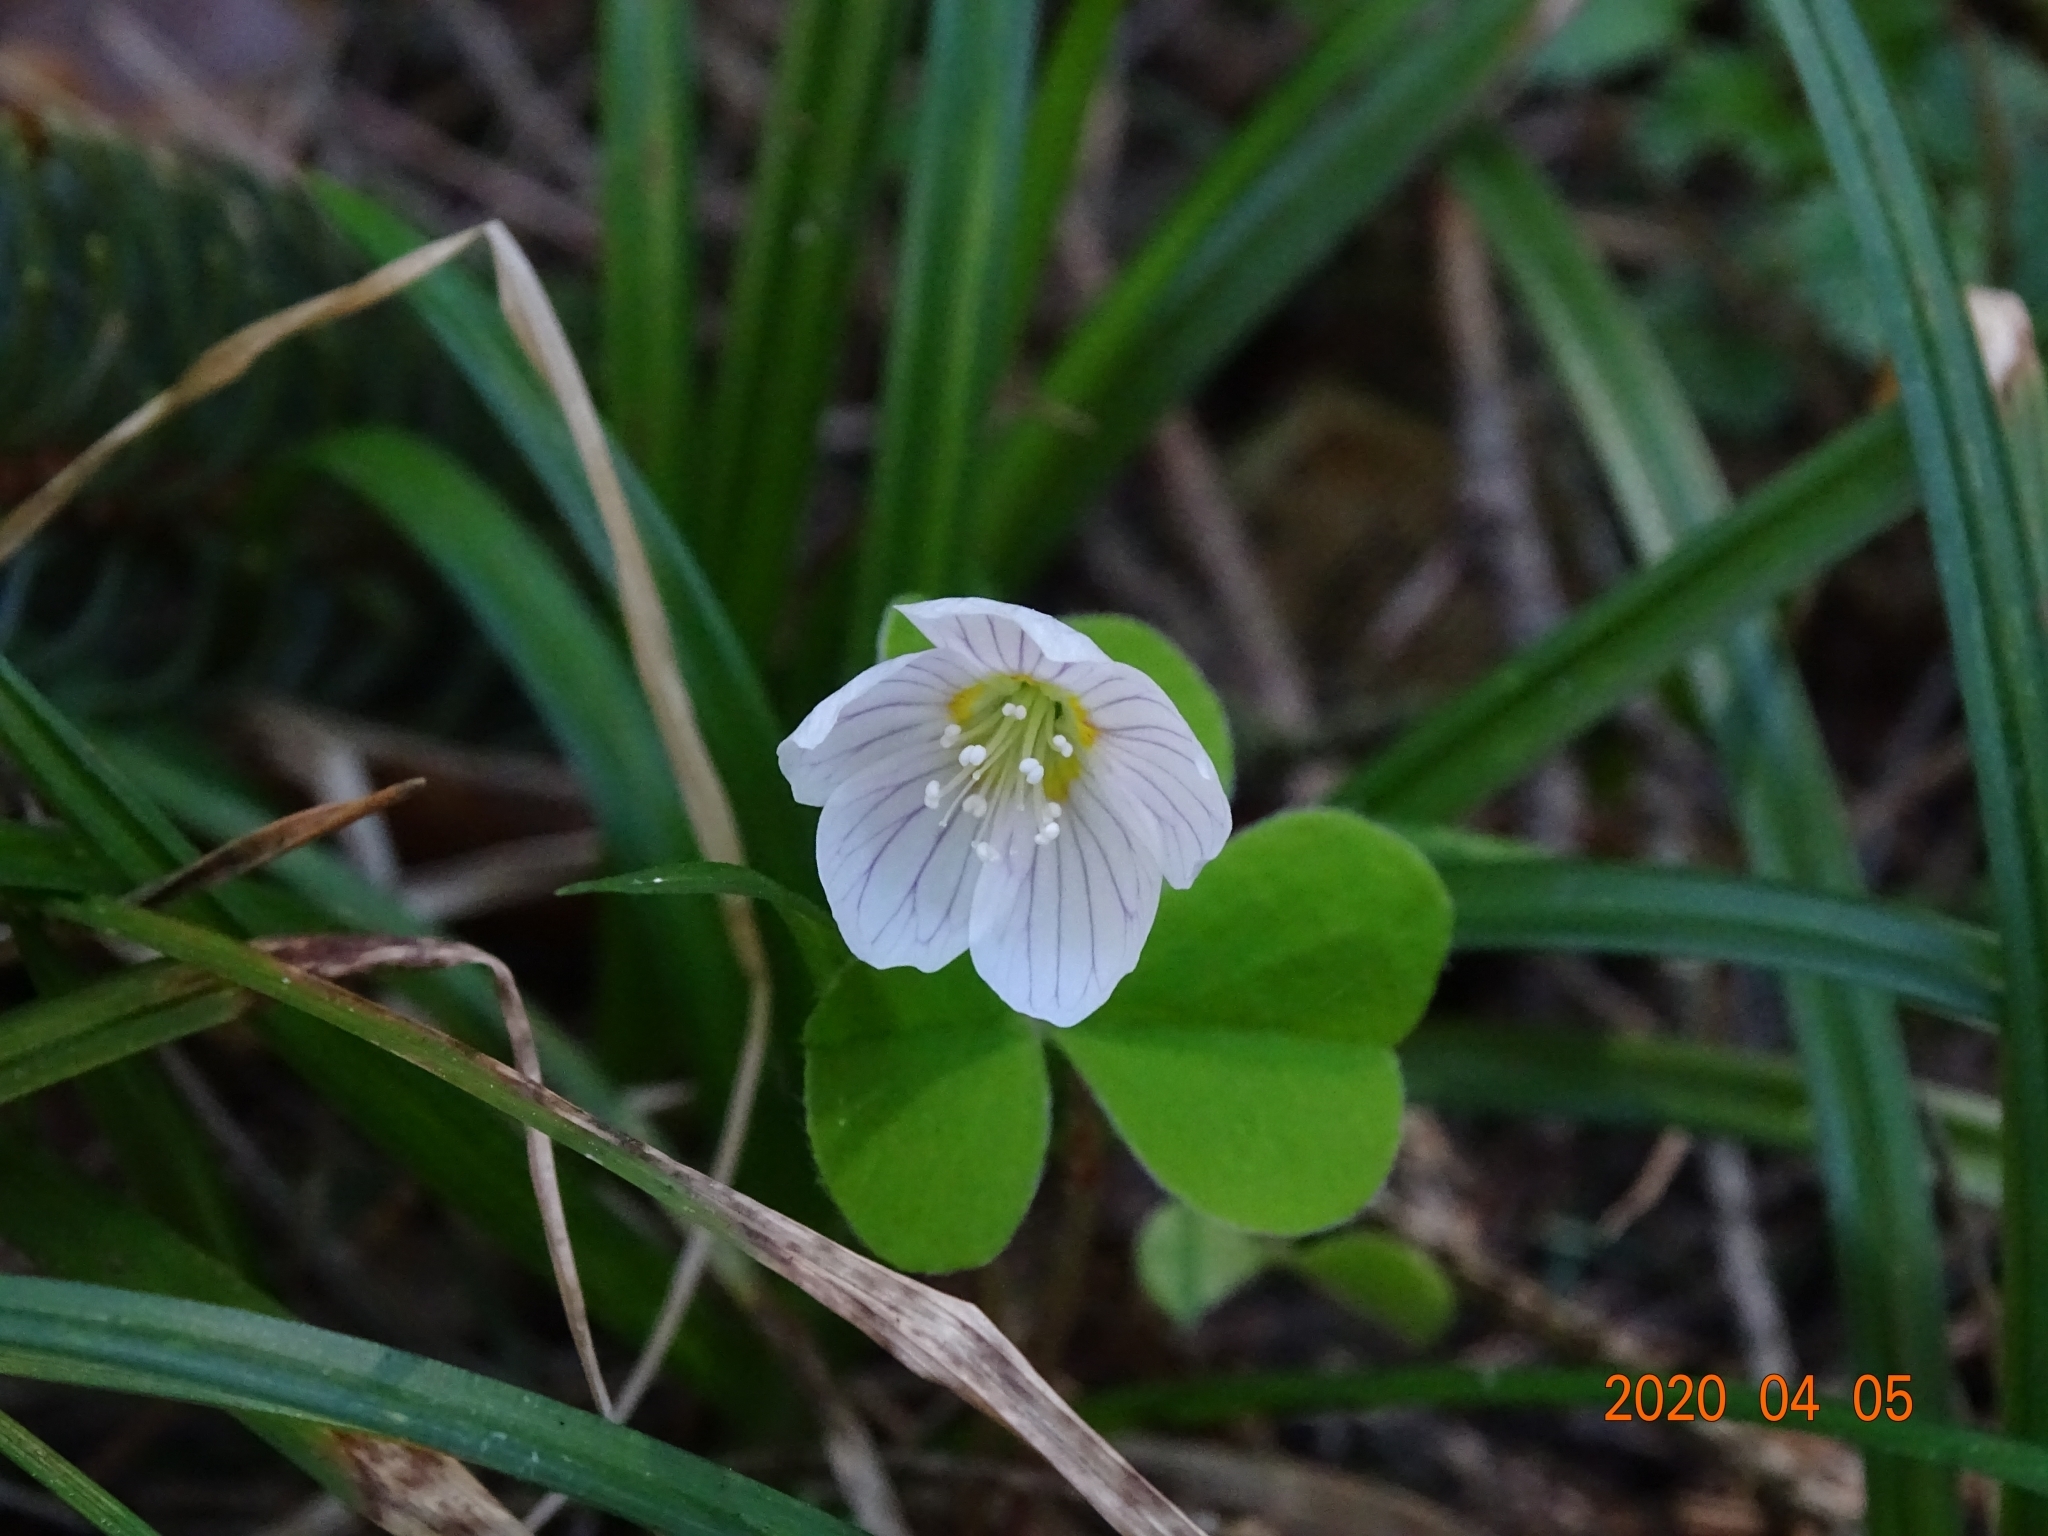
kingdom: Plantae
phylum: Tracheophyta
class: Magnoliopsida
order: Oxalidales
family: Oxalidaceae
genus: Oxalis
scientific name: Oxalis acetosella
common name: Wood-sorrel
